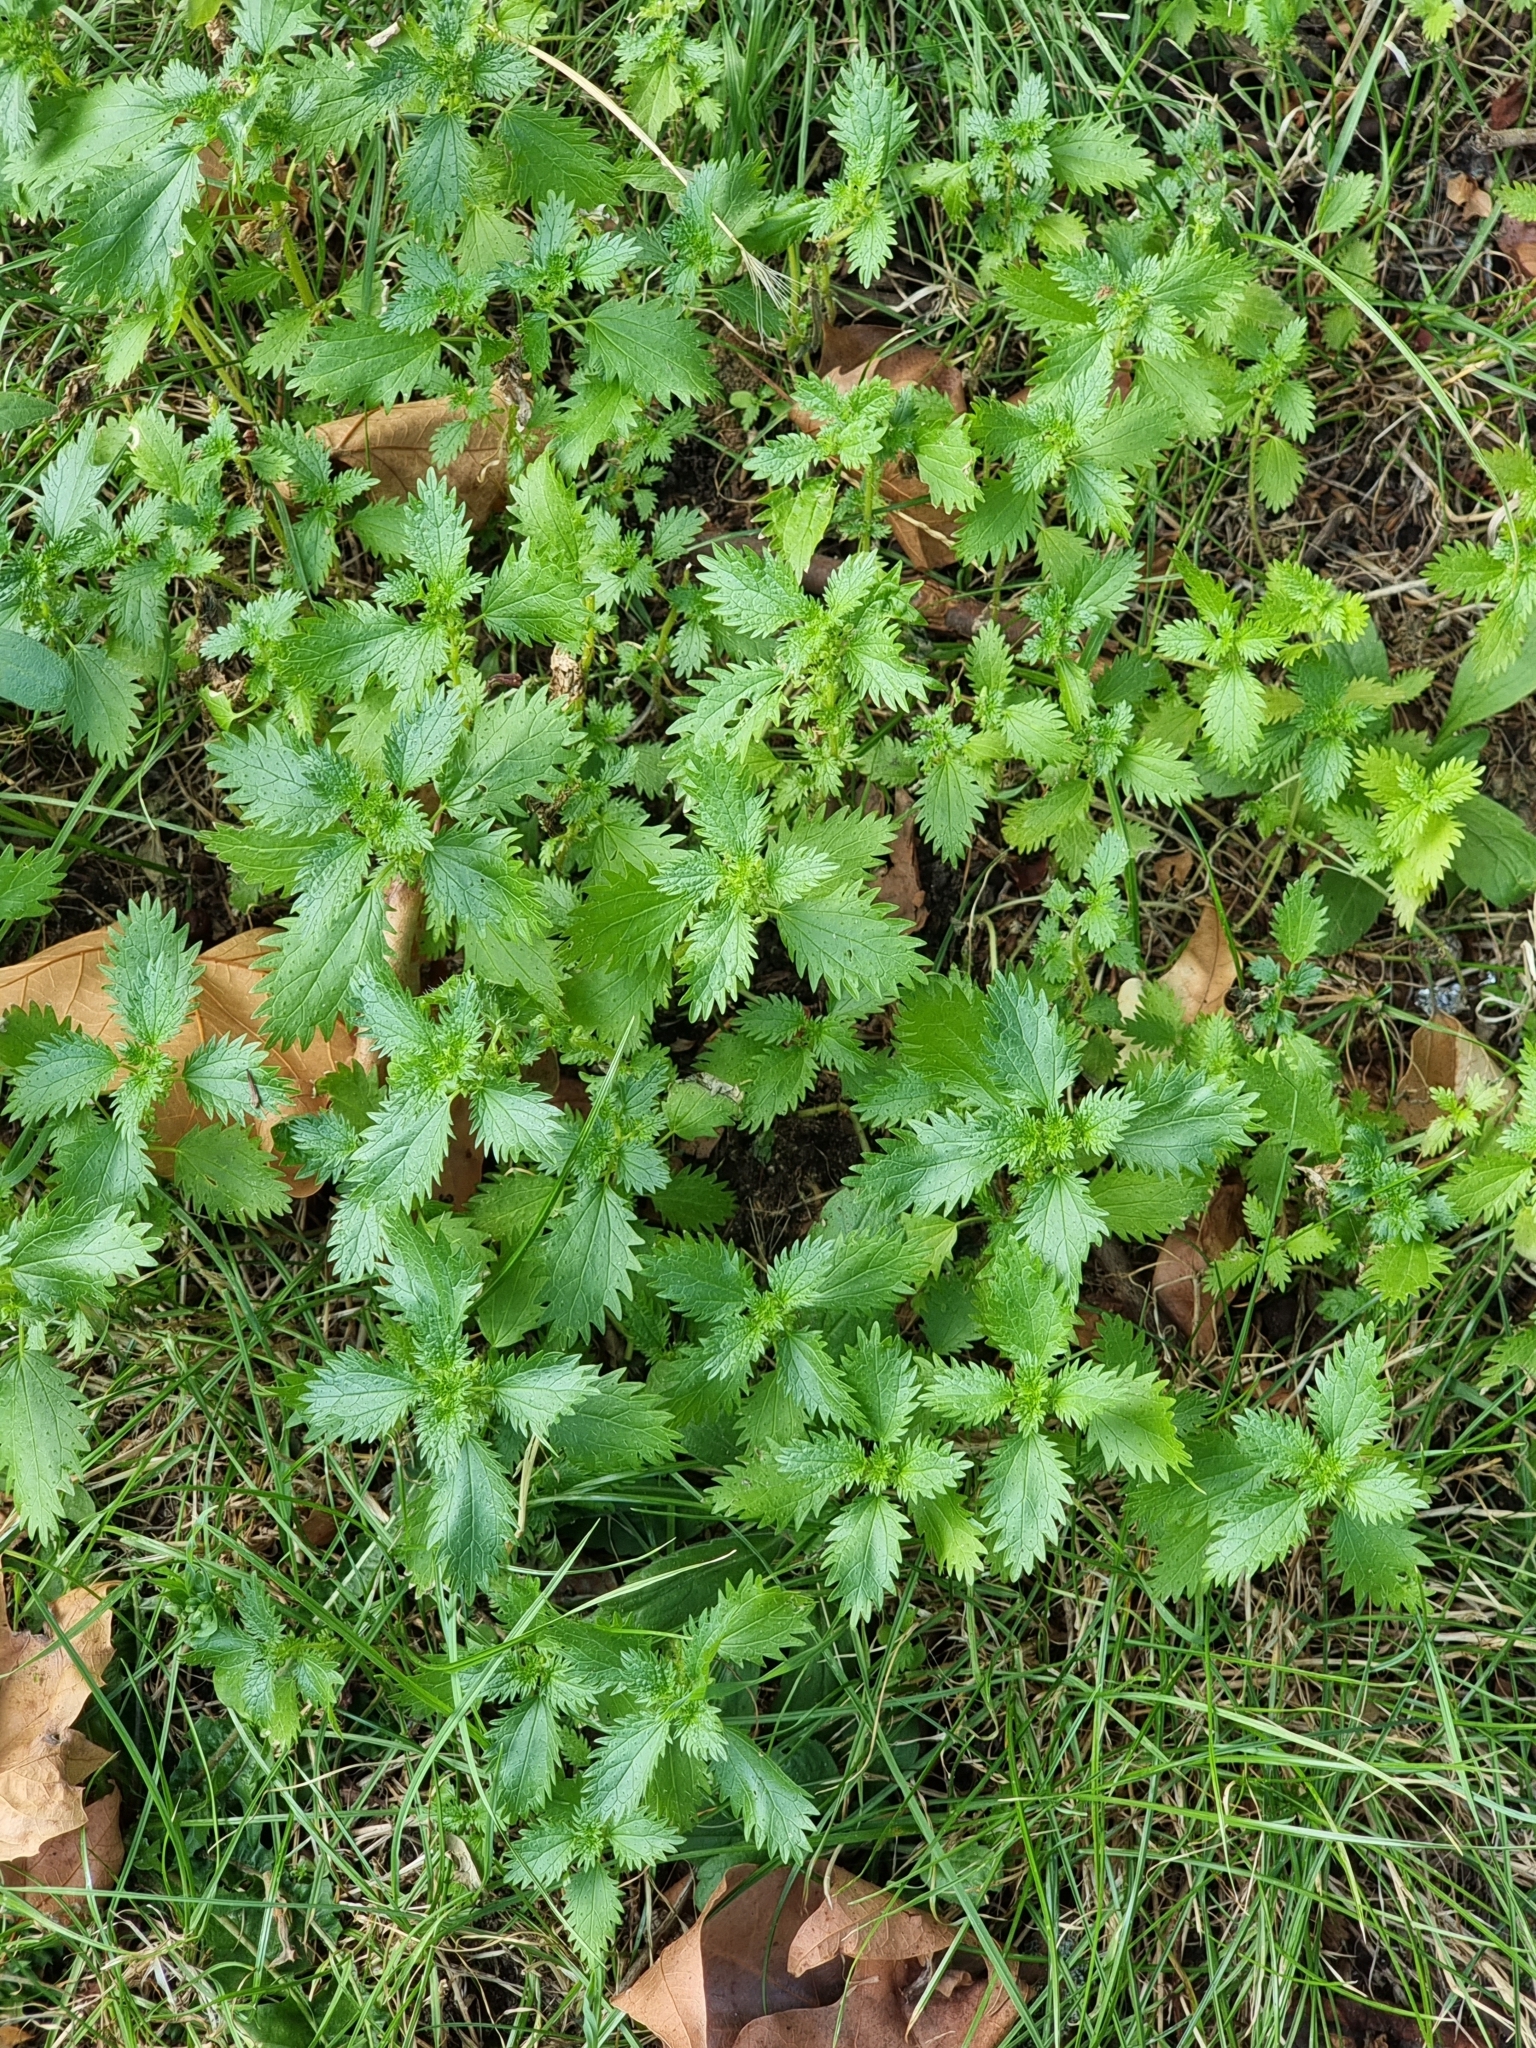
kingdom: Plantae
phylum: Tracheophyta
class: Magnoliopsida
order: Rosales
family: Urticaceae
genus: Urtica
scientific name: Urtica urens
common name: Dwarf nettle
